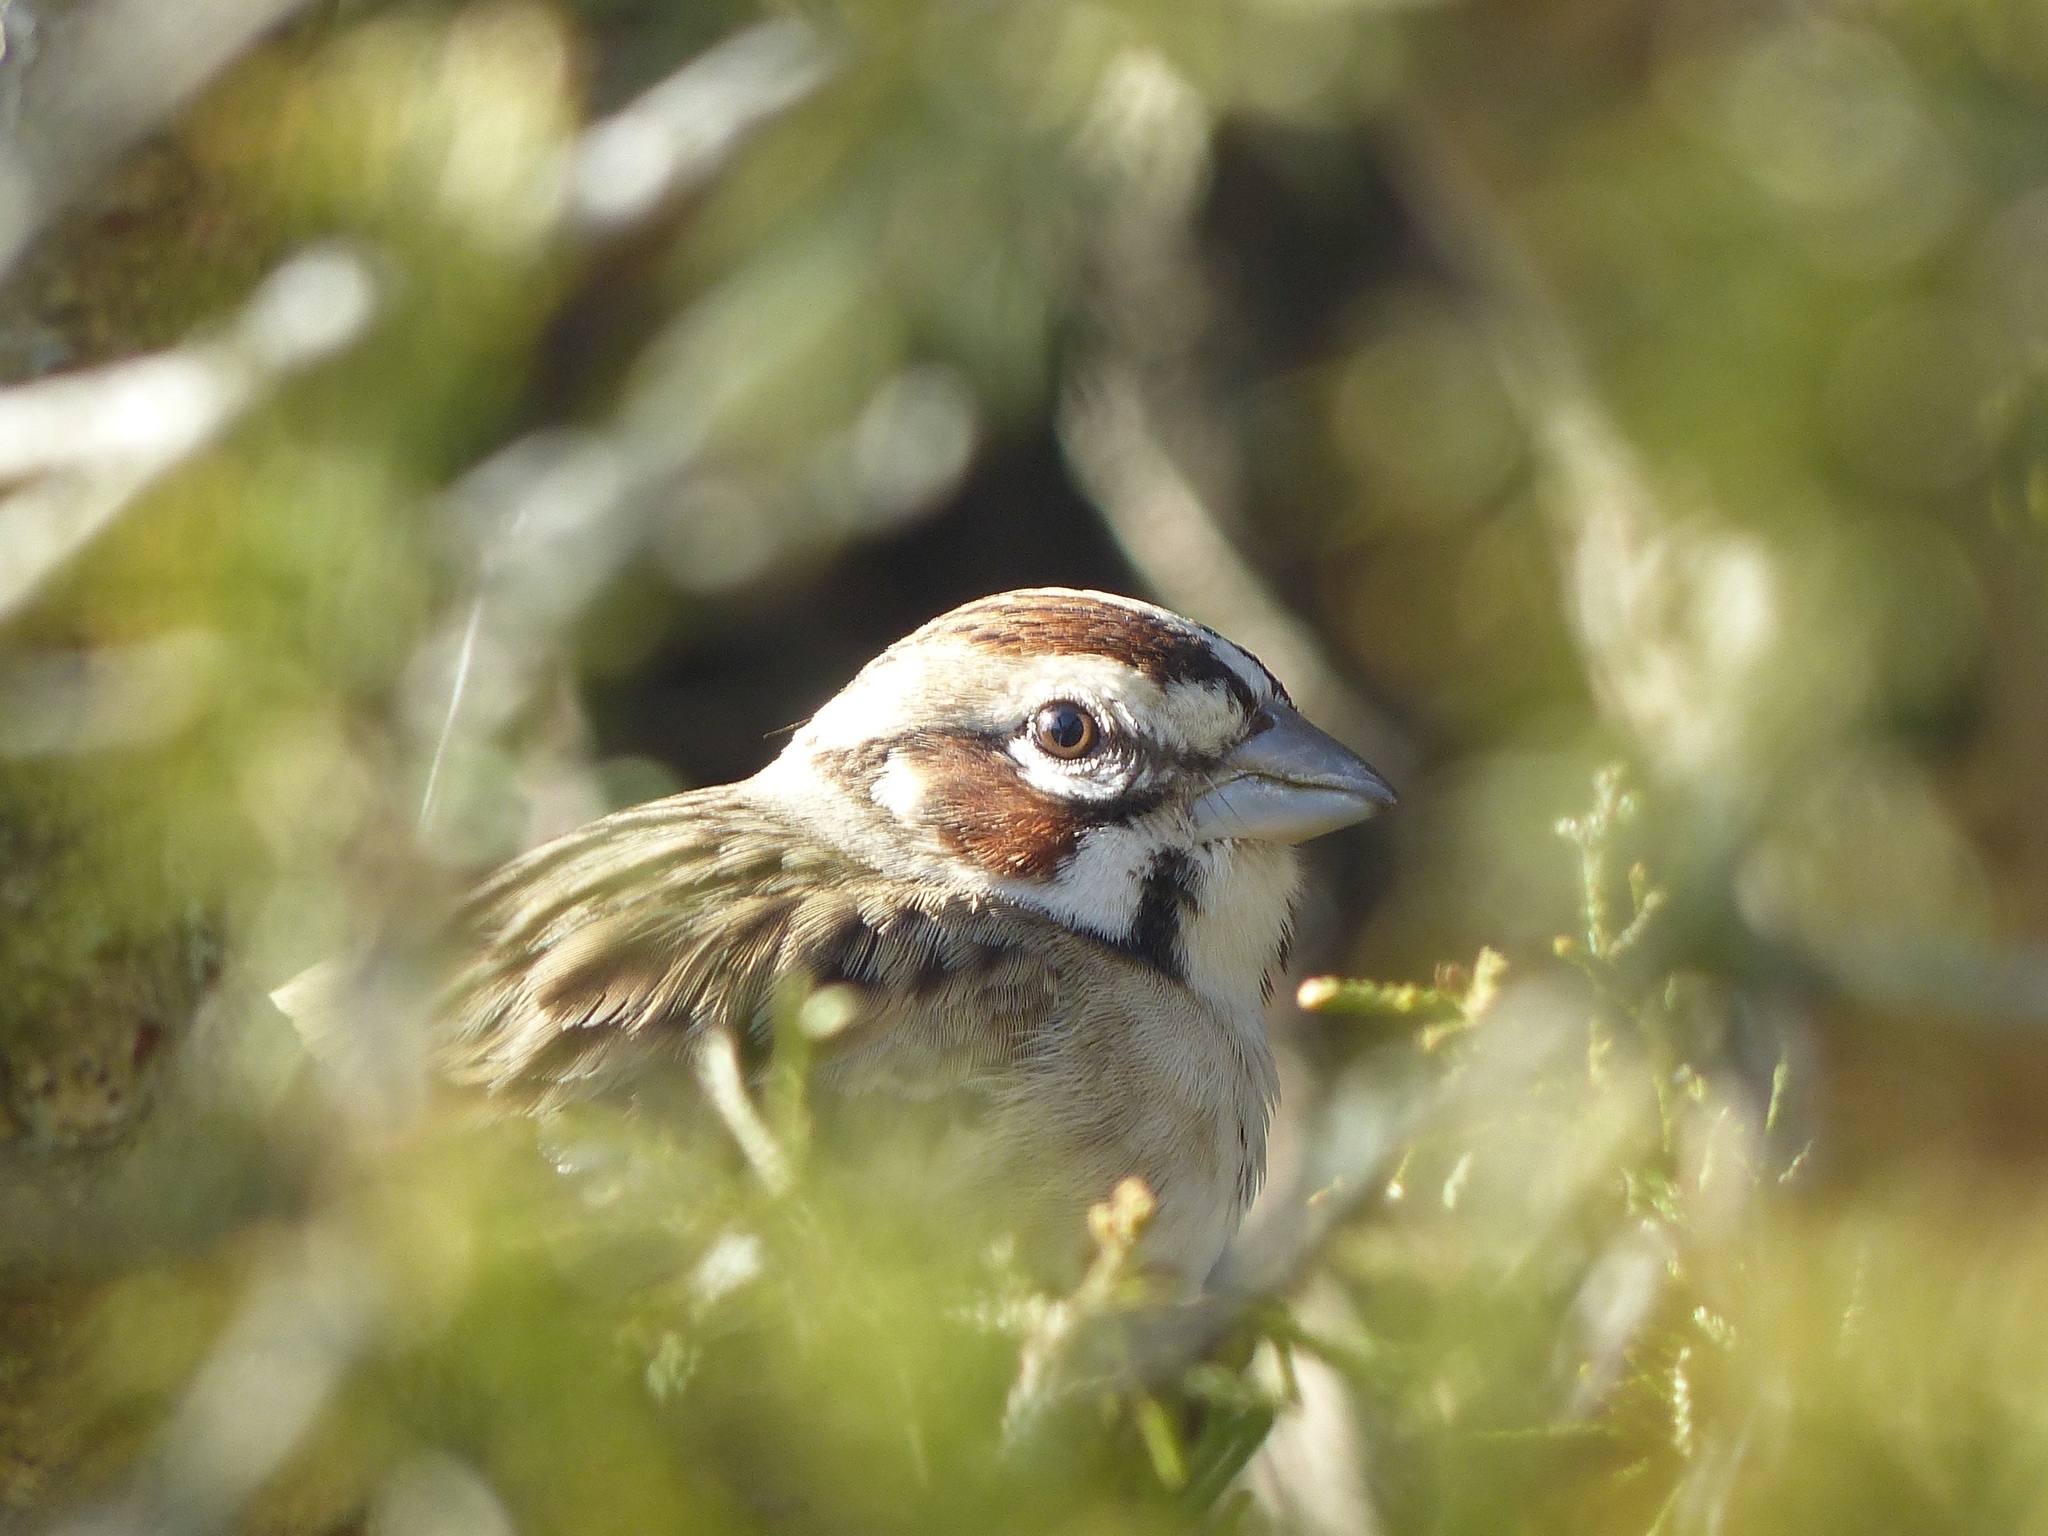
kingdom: Animalia
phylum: Chordata
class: Aves
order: Passeriformes
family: Passerellidae
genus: Chondestes
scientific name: Chondestes grammacus
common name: Lark sparrow
